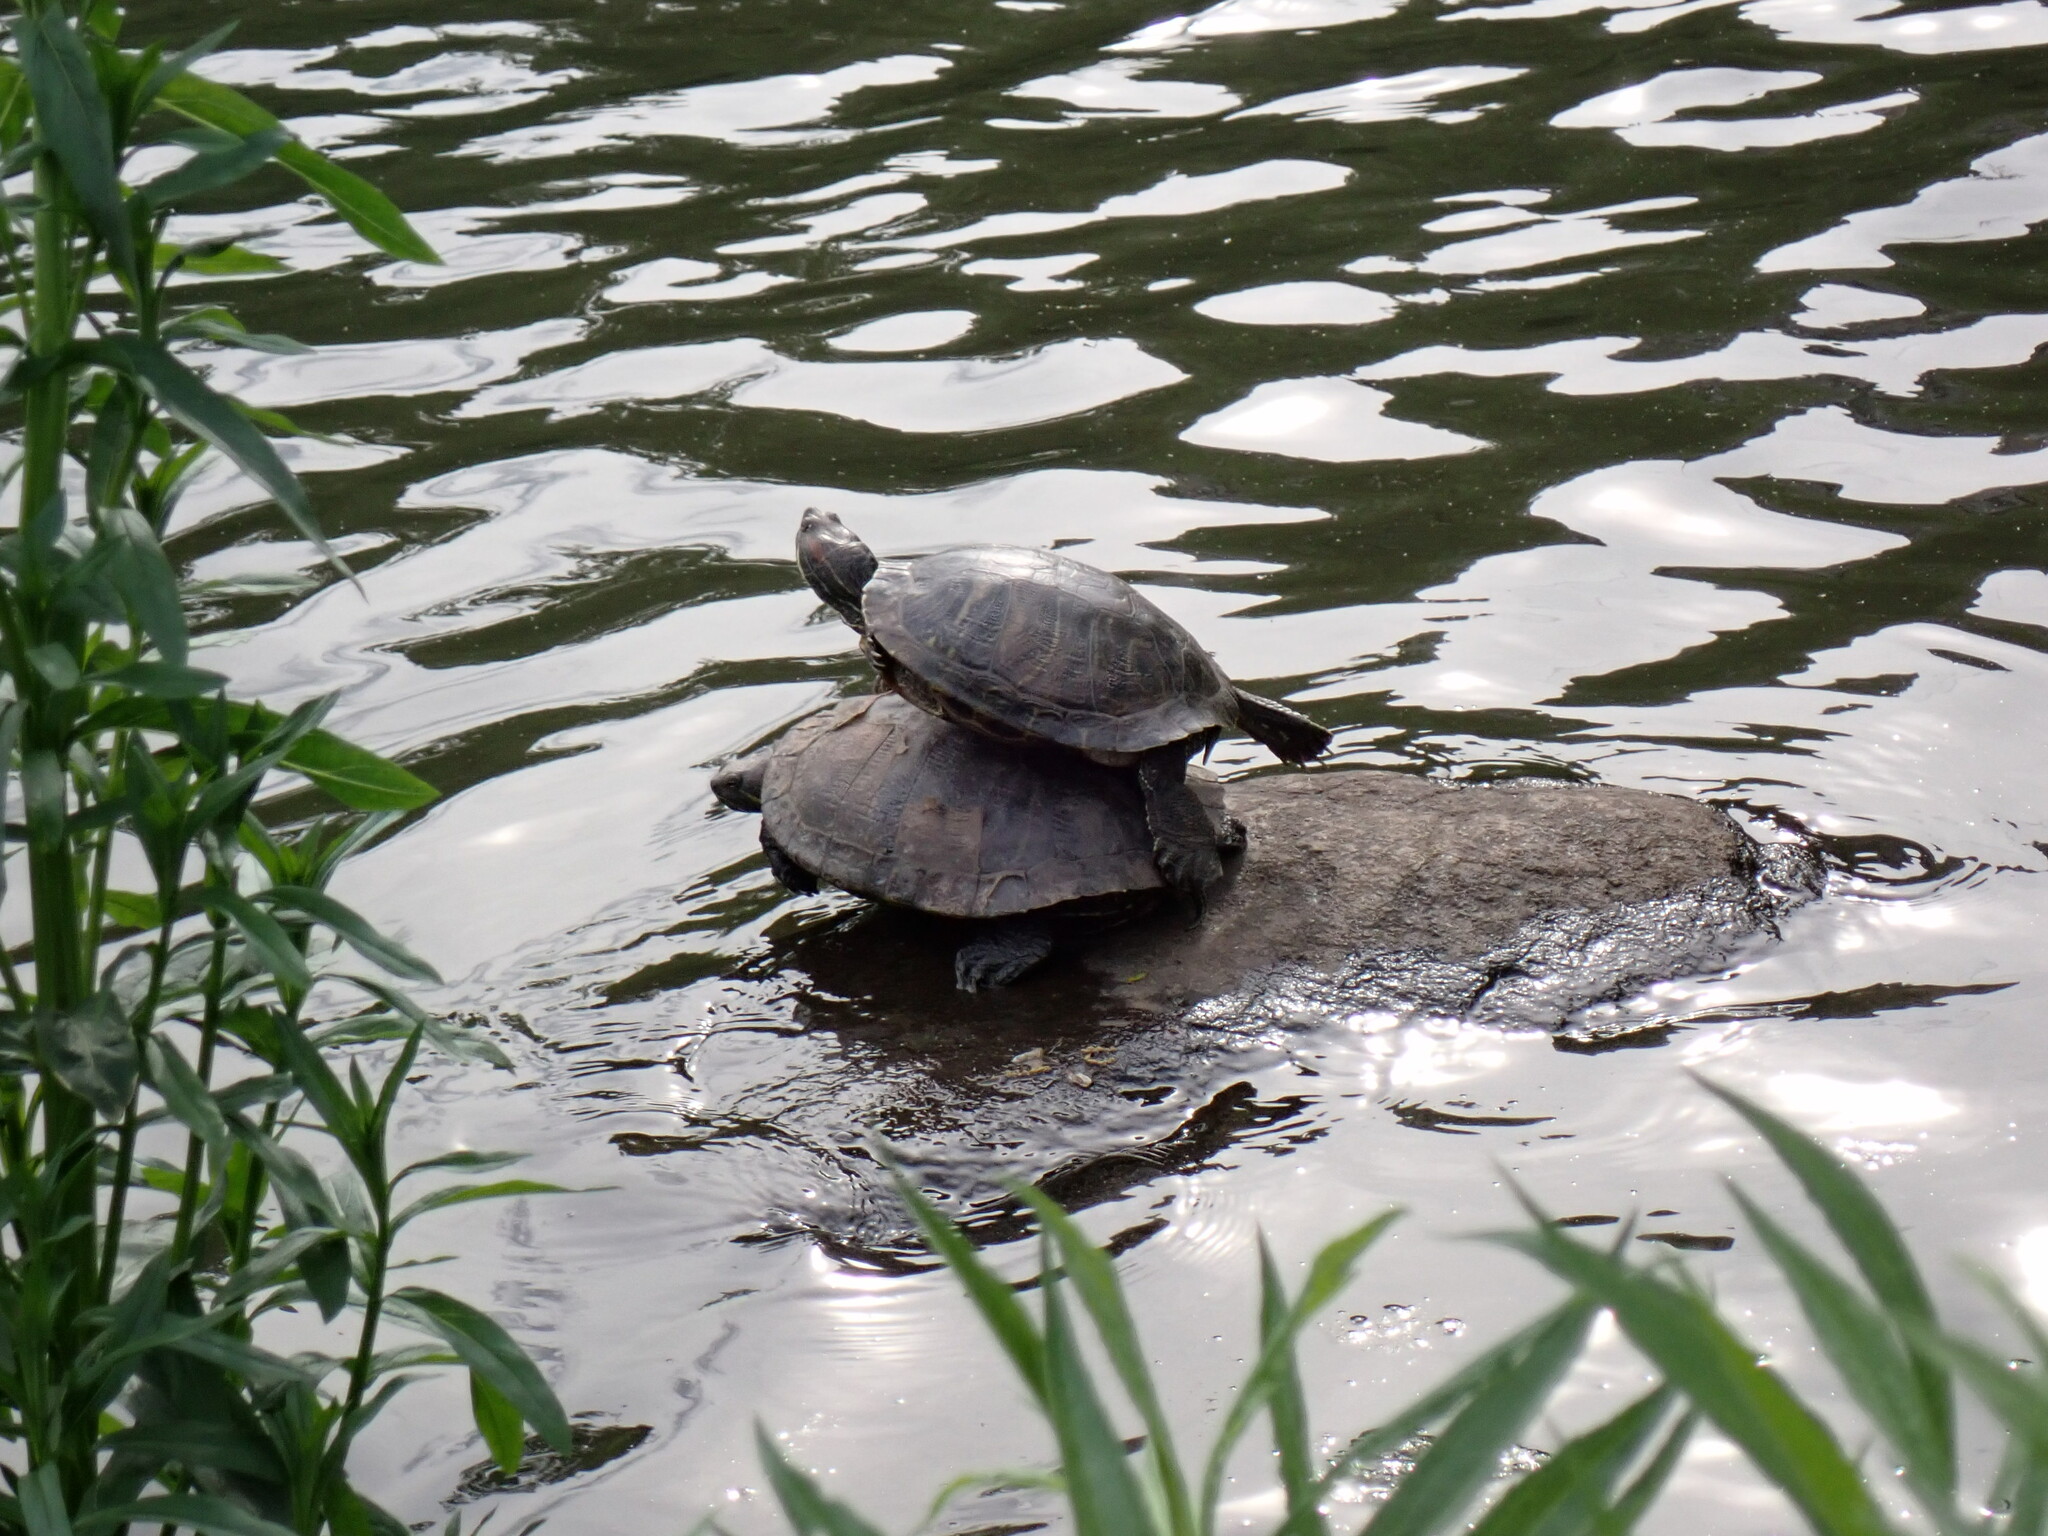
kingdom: Animalia
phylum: Chordata
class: Testudines
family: Emydidae
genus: Trachemys
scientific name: Trachemys scripta
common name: Slider
